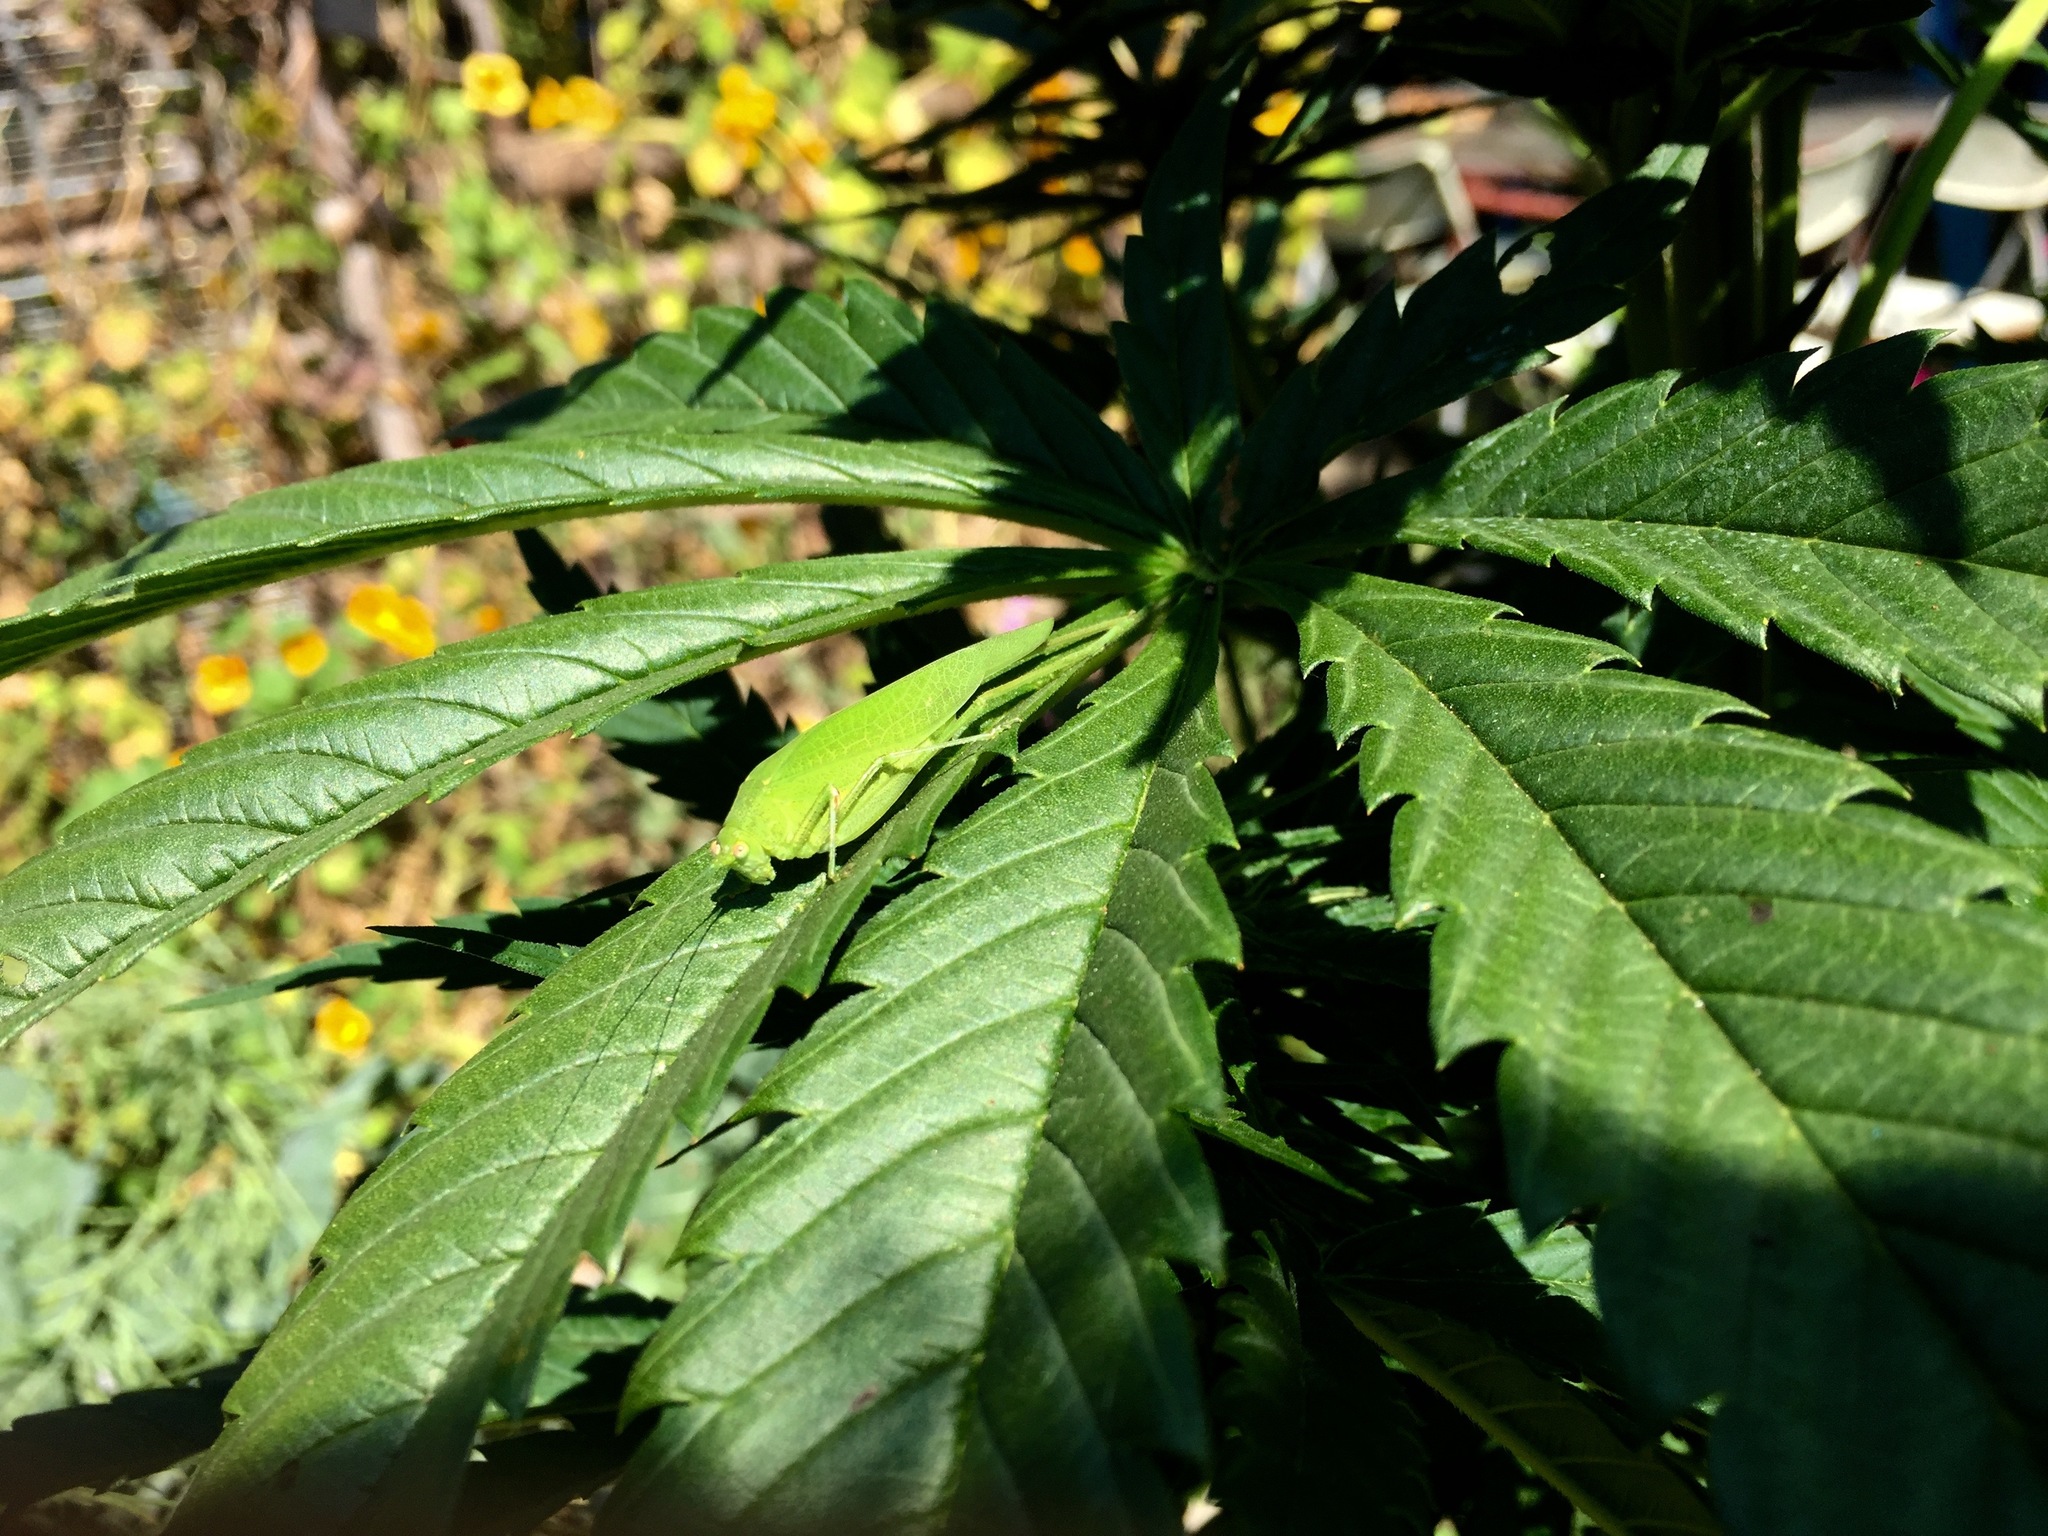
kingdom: Animalia
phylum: Arthropoda
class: Insecta
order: Orthoptera
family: Tettigoniidae
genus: Phaneroptera
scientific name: Phaneroptera nana
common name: Southern sickle bush-cricket
